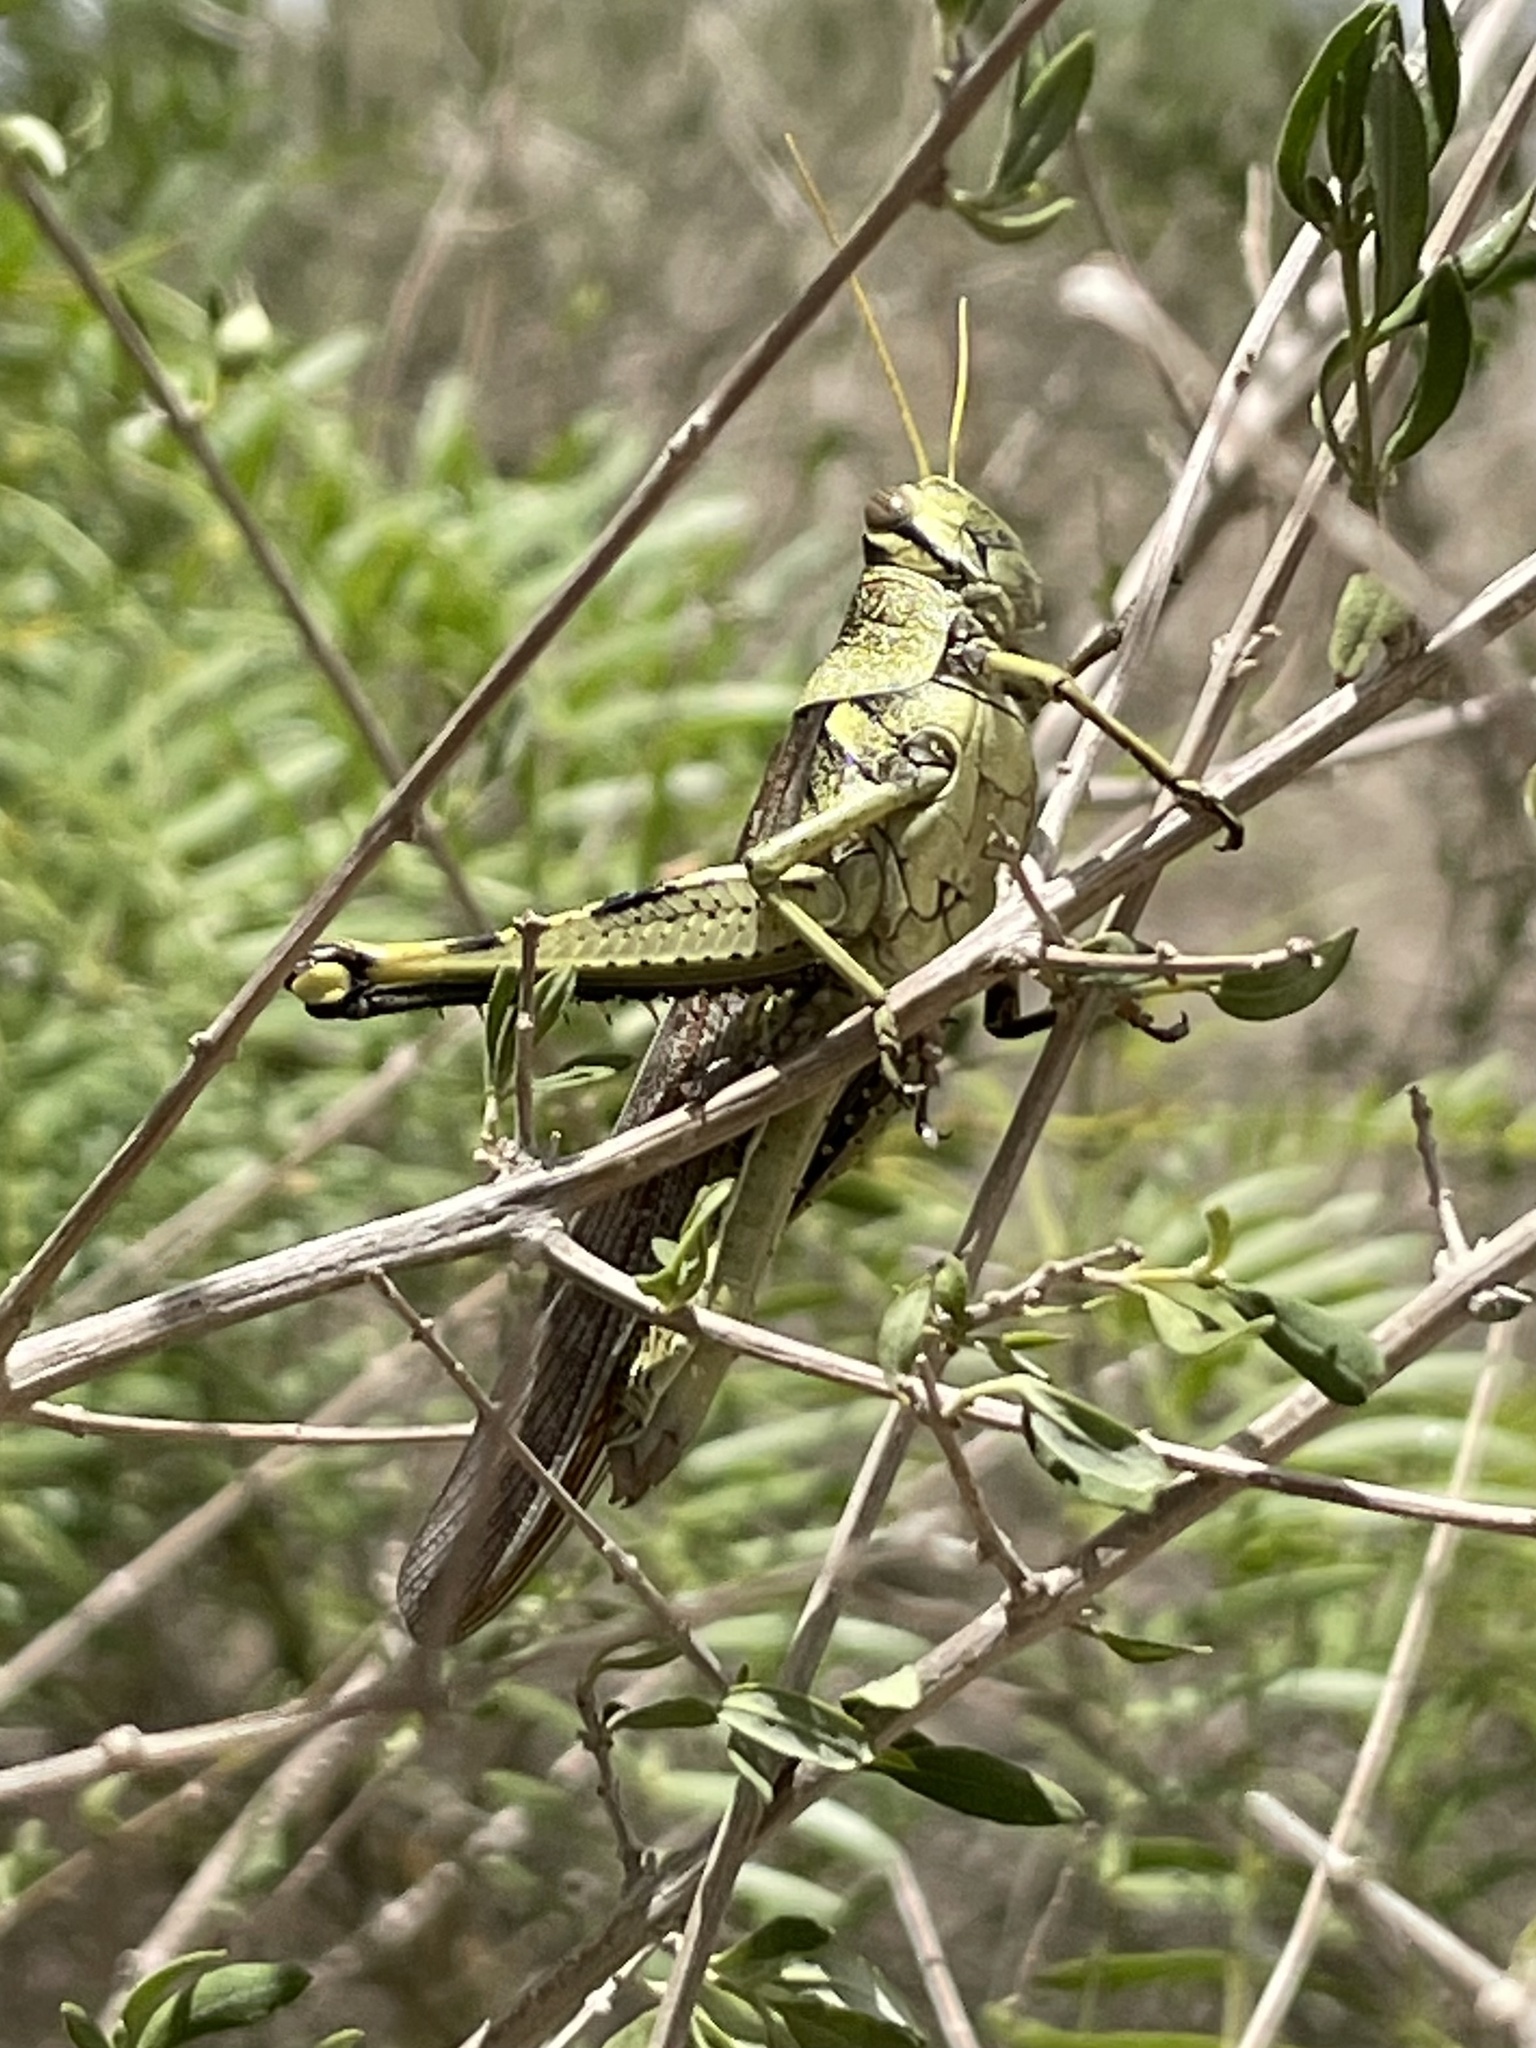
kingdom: Animalia
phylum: Arthropoda
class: Insecta
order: Orthoptera
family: Acrididae
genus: Schistocerca
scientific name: Schistocerca obscura
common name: Obscure bird grasshopper
